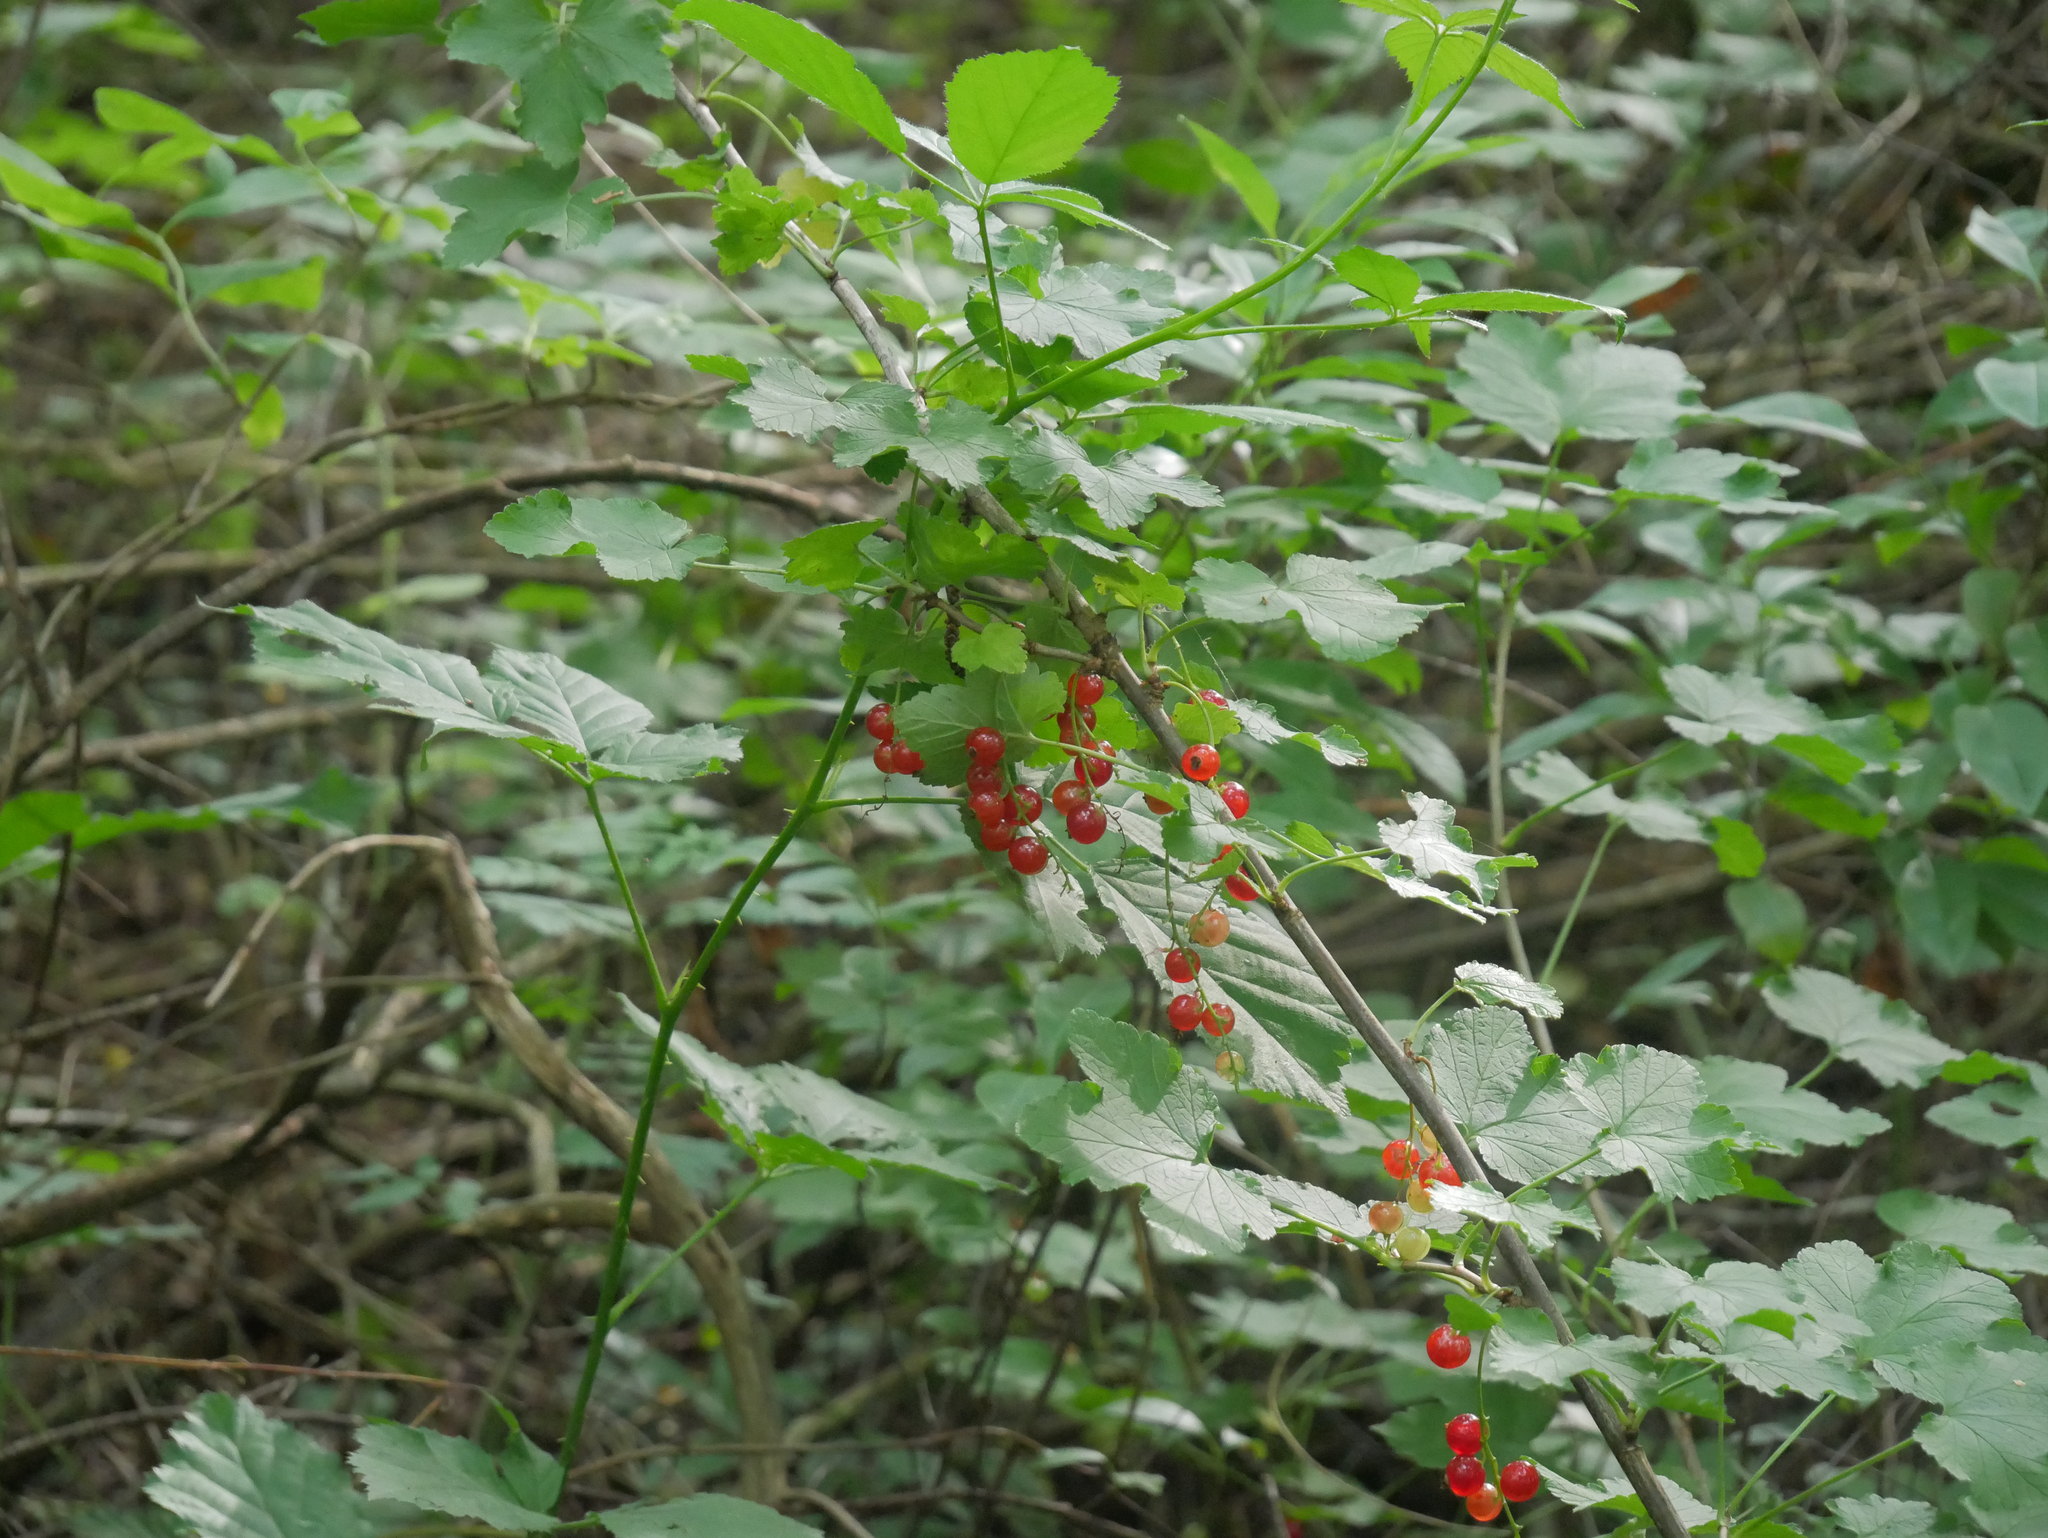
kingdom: Plantae
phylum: Tracheophyta
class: Magnoliopsida
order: Saxifragales
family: Grossulariaceae
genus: Ribes
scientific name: Ribes rubrum
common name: Red currant
